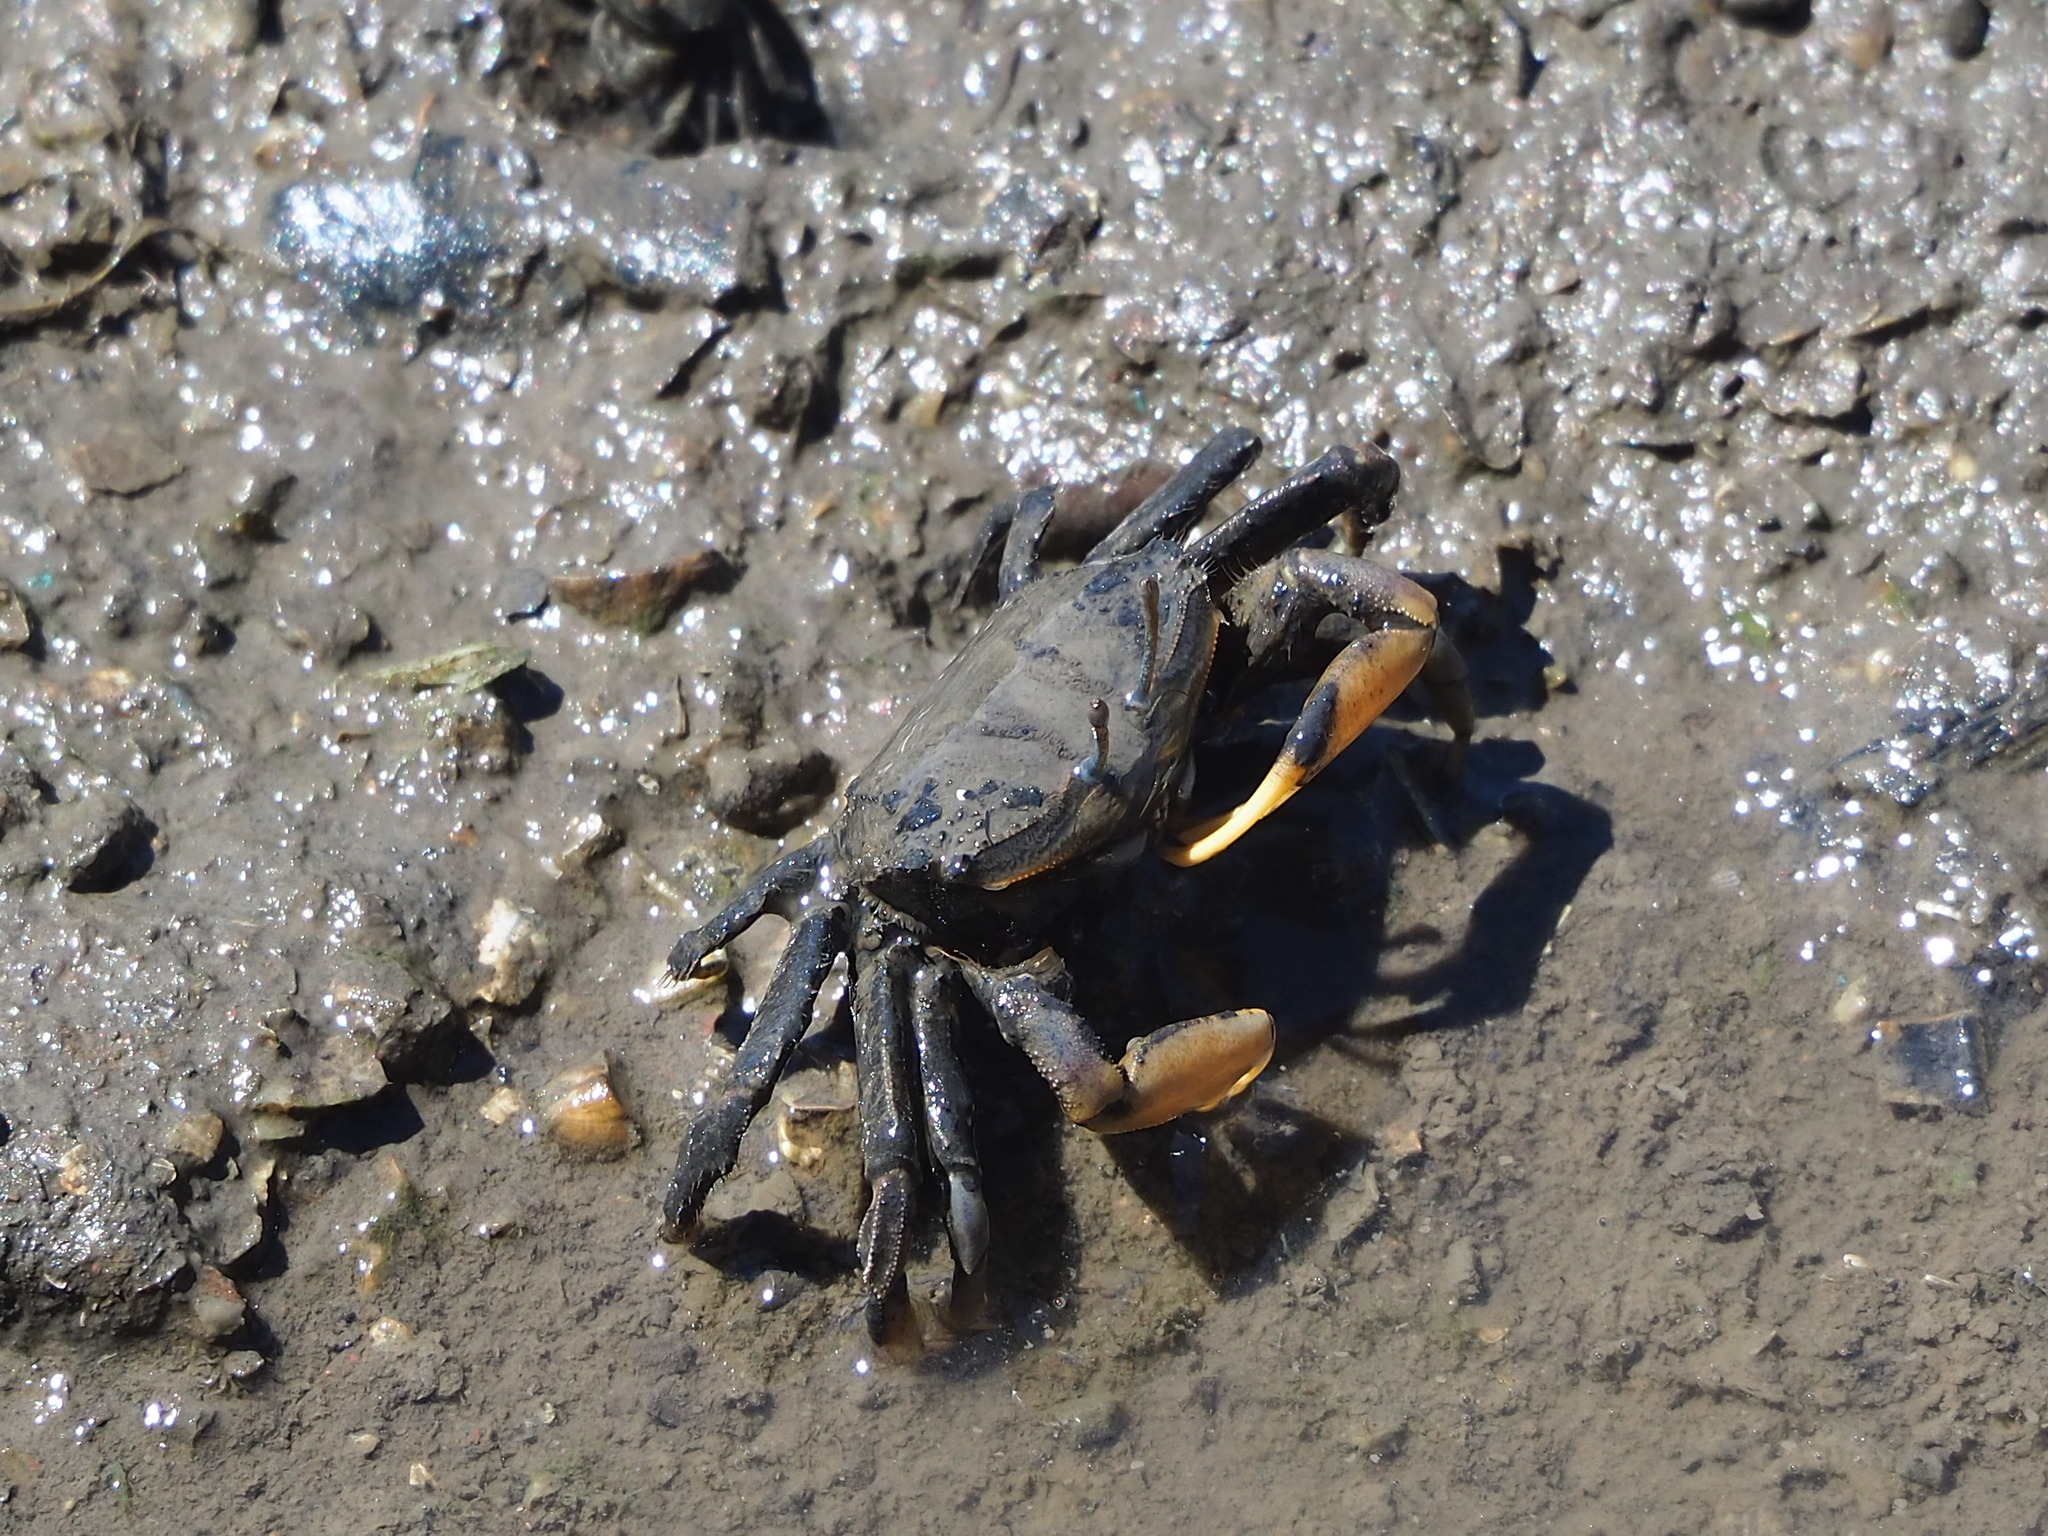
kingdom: Animalia
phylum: Arthropoda
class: Malacostraca
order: Decapoda
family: Macrophthalmidae
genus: Macrophthalmus
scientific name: Macrophthalmus banzai
